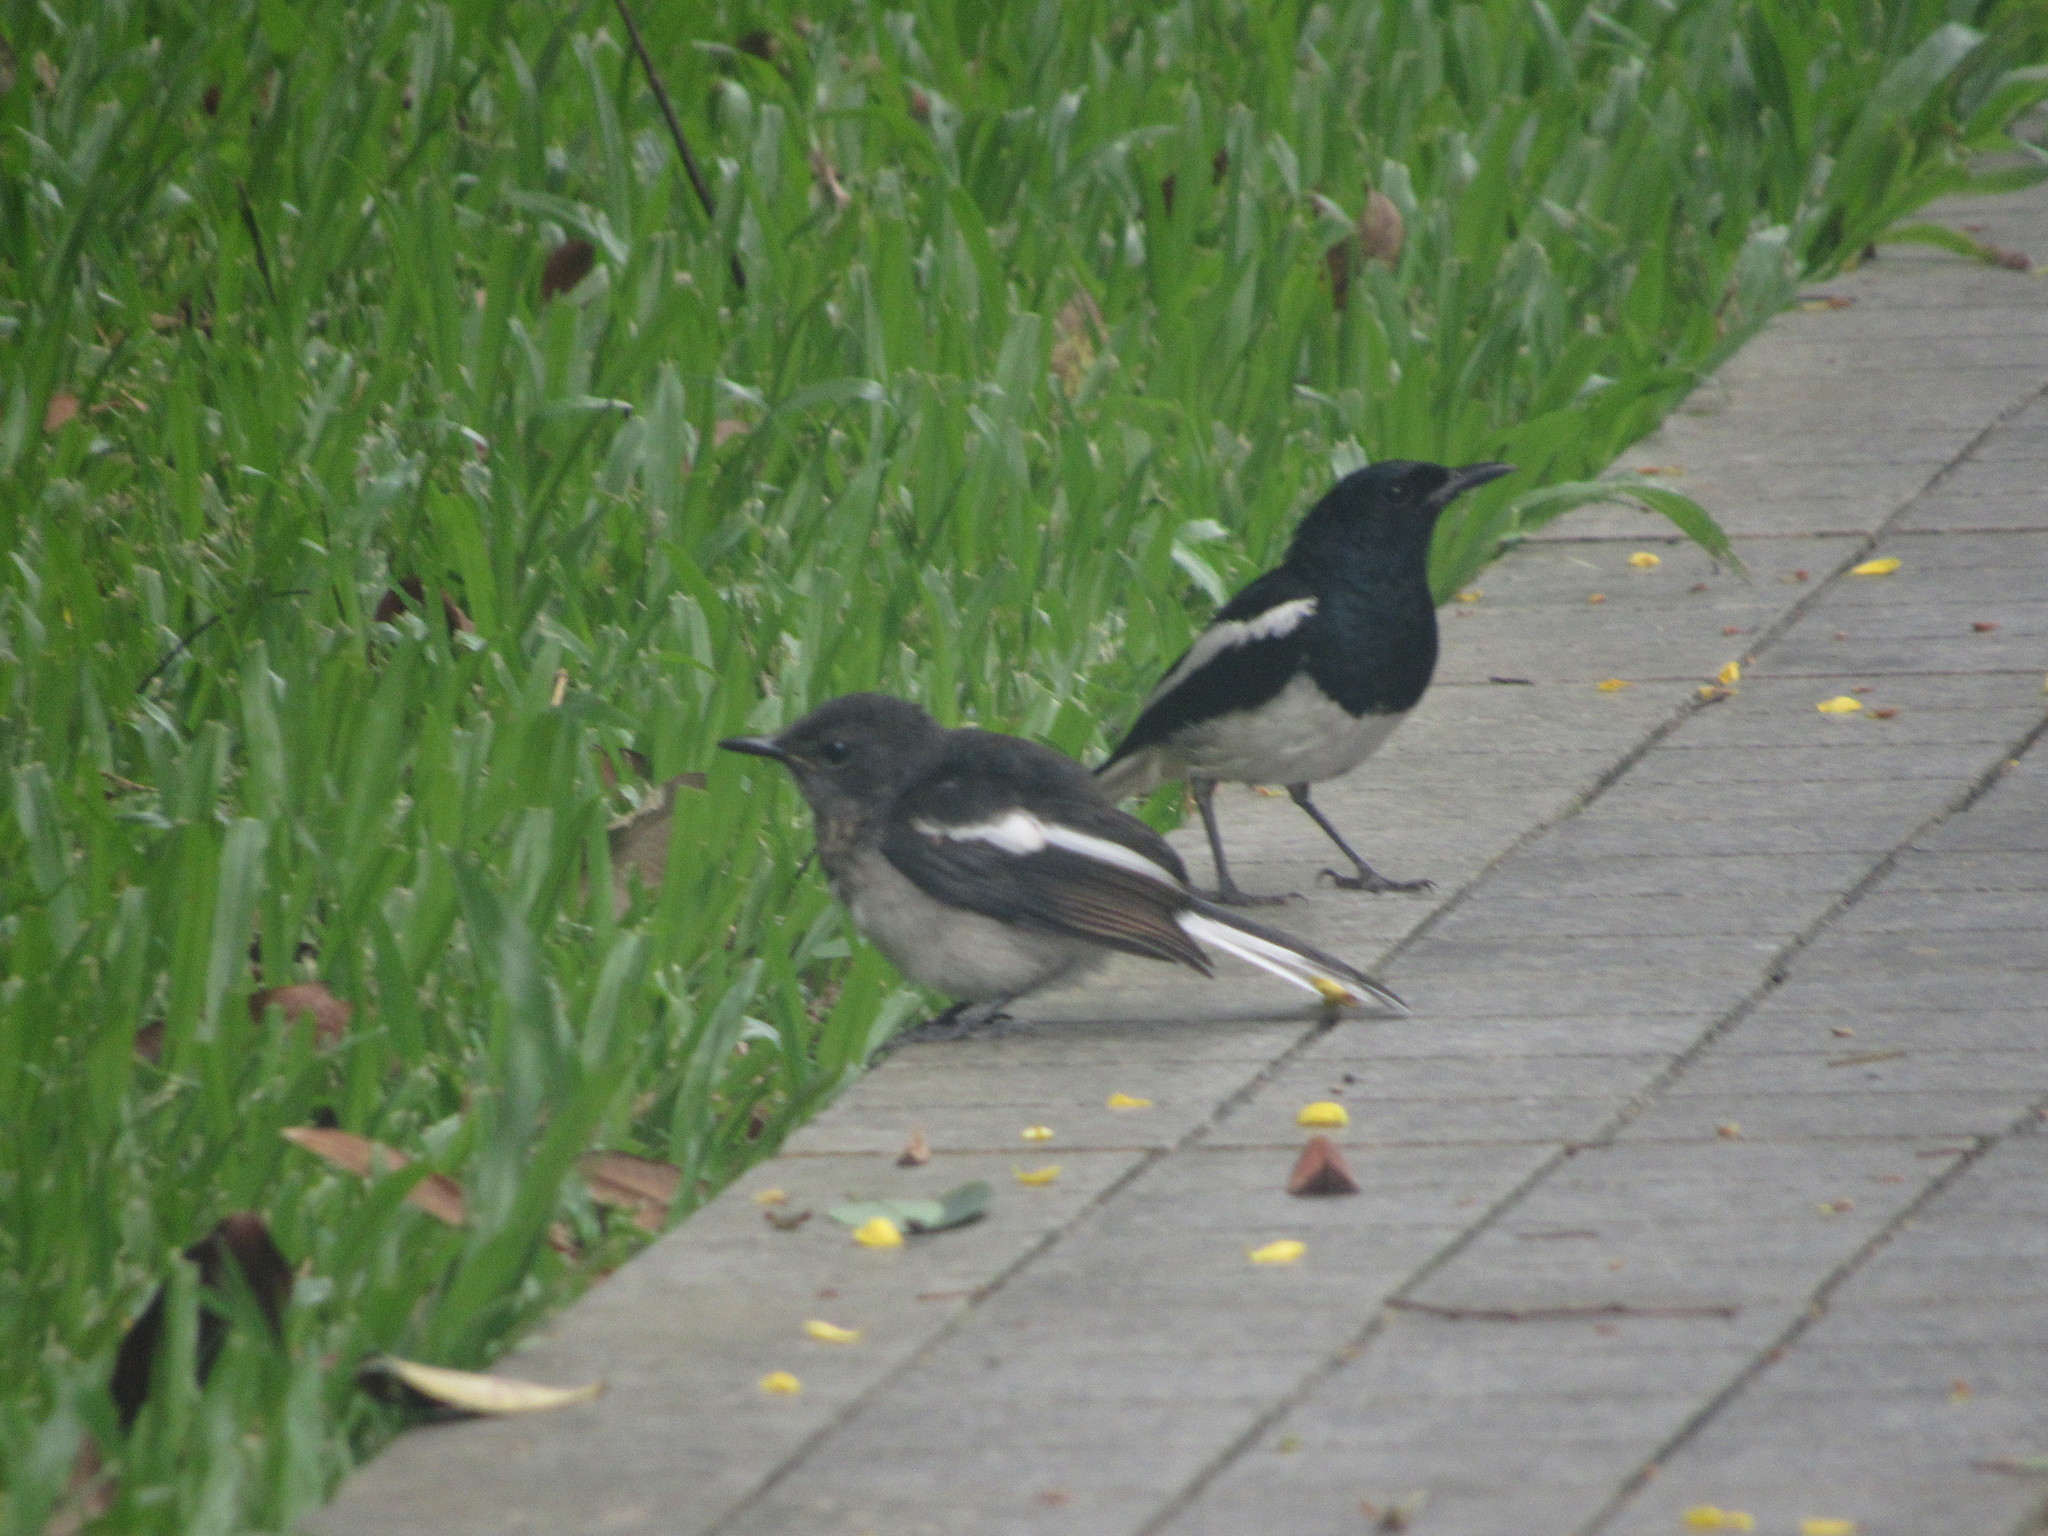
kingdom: Animalia
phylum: Chordata
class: Aves
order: Passeriformes
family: Muscicapidae
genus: Copsychus
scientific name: Copsychus saularis
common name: Oriental magpie-robin
